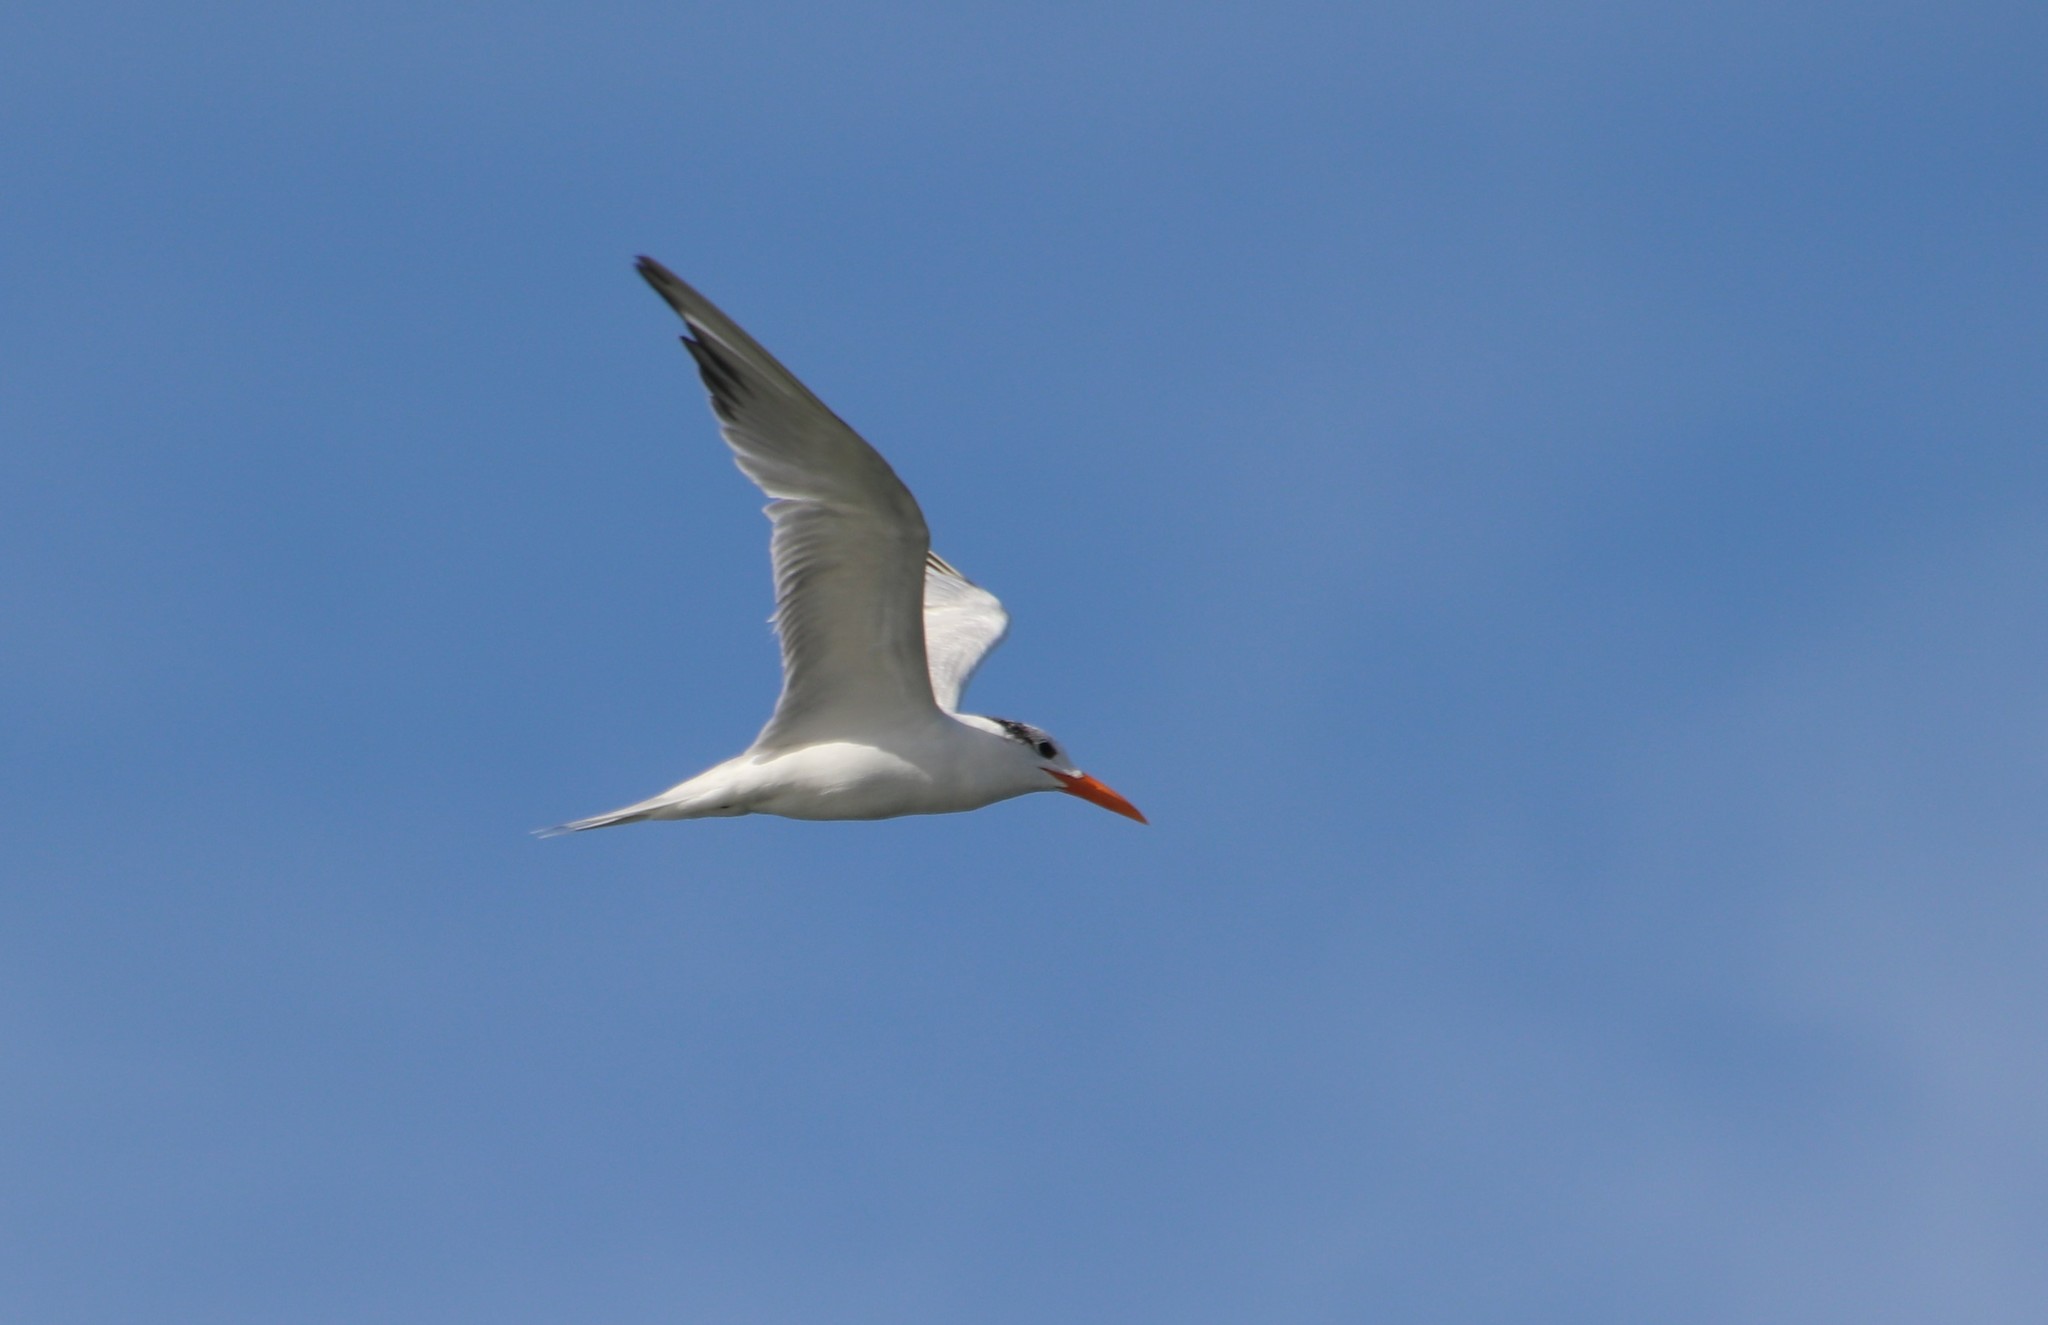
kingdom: Animalia
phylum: Chordata
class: Aves
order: Charadriiformes
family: Laridae
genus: Thalasseus
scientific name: Thalasseus maximus
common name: Royal tern
